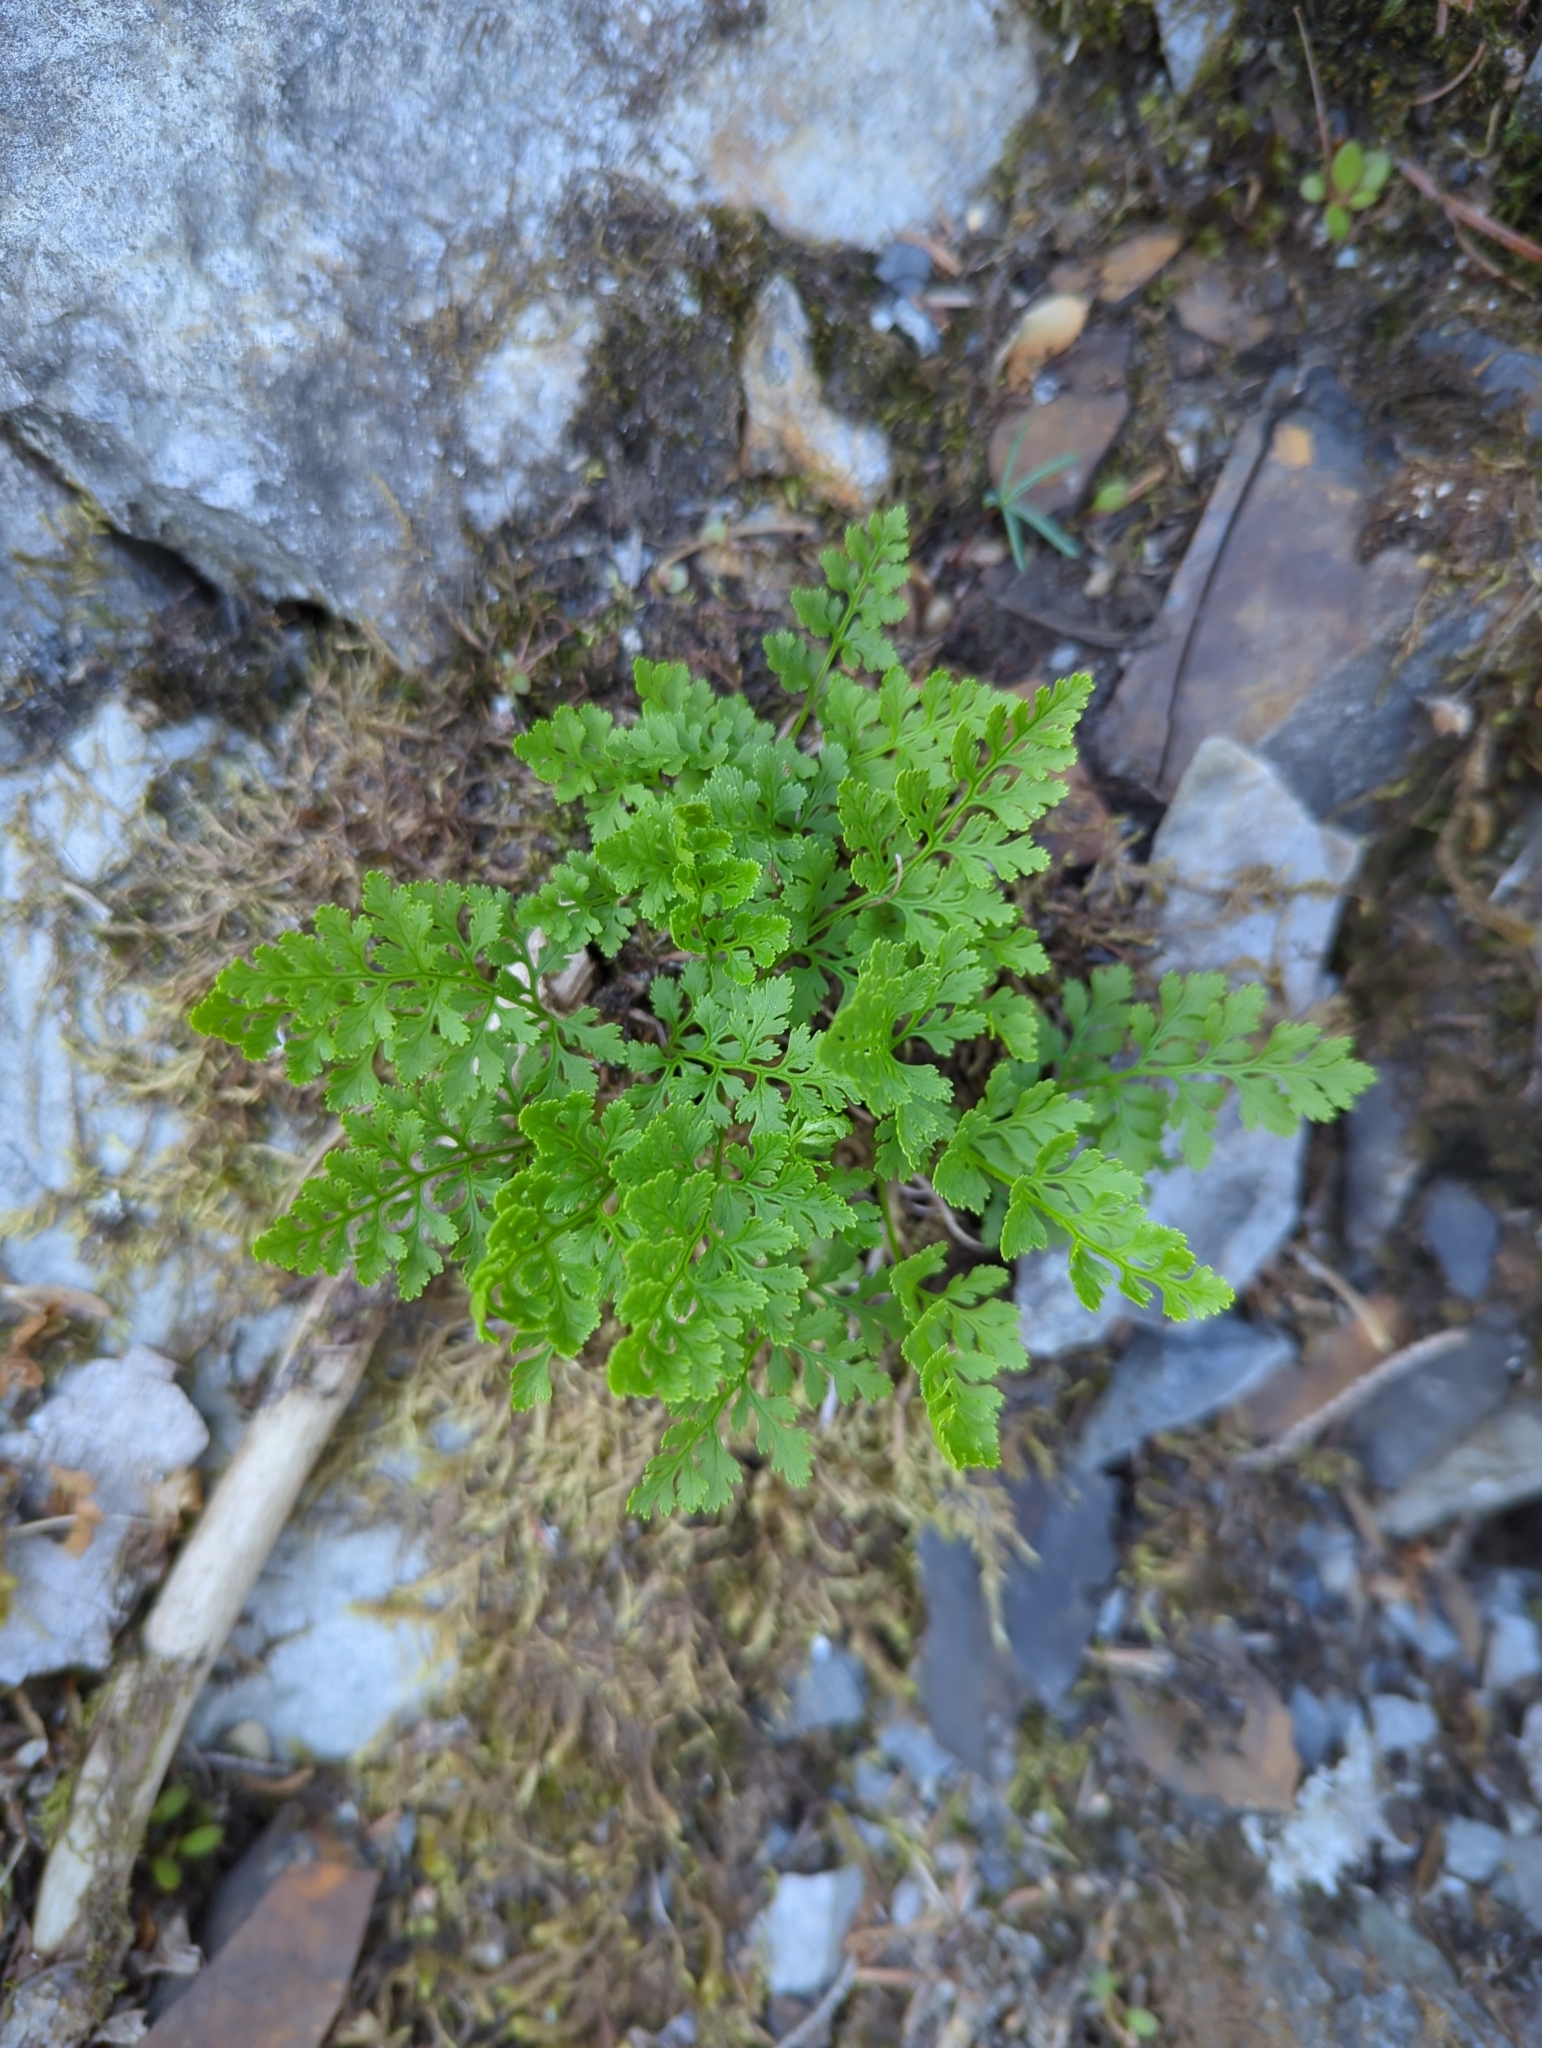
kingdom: Plantae
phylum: Tracheophyta
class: Polypodiopsida
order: Polypodiales
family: Pteridaceae
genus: Cryptogramma
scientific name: Cryptogramma acrostichoides
